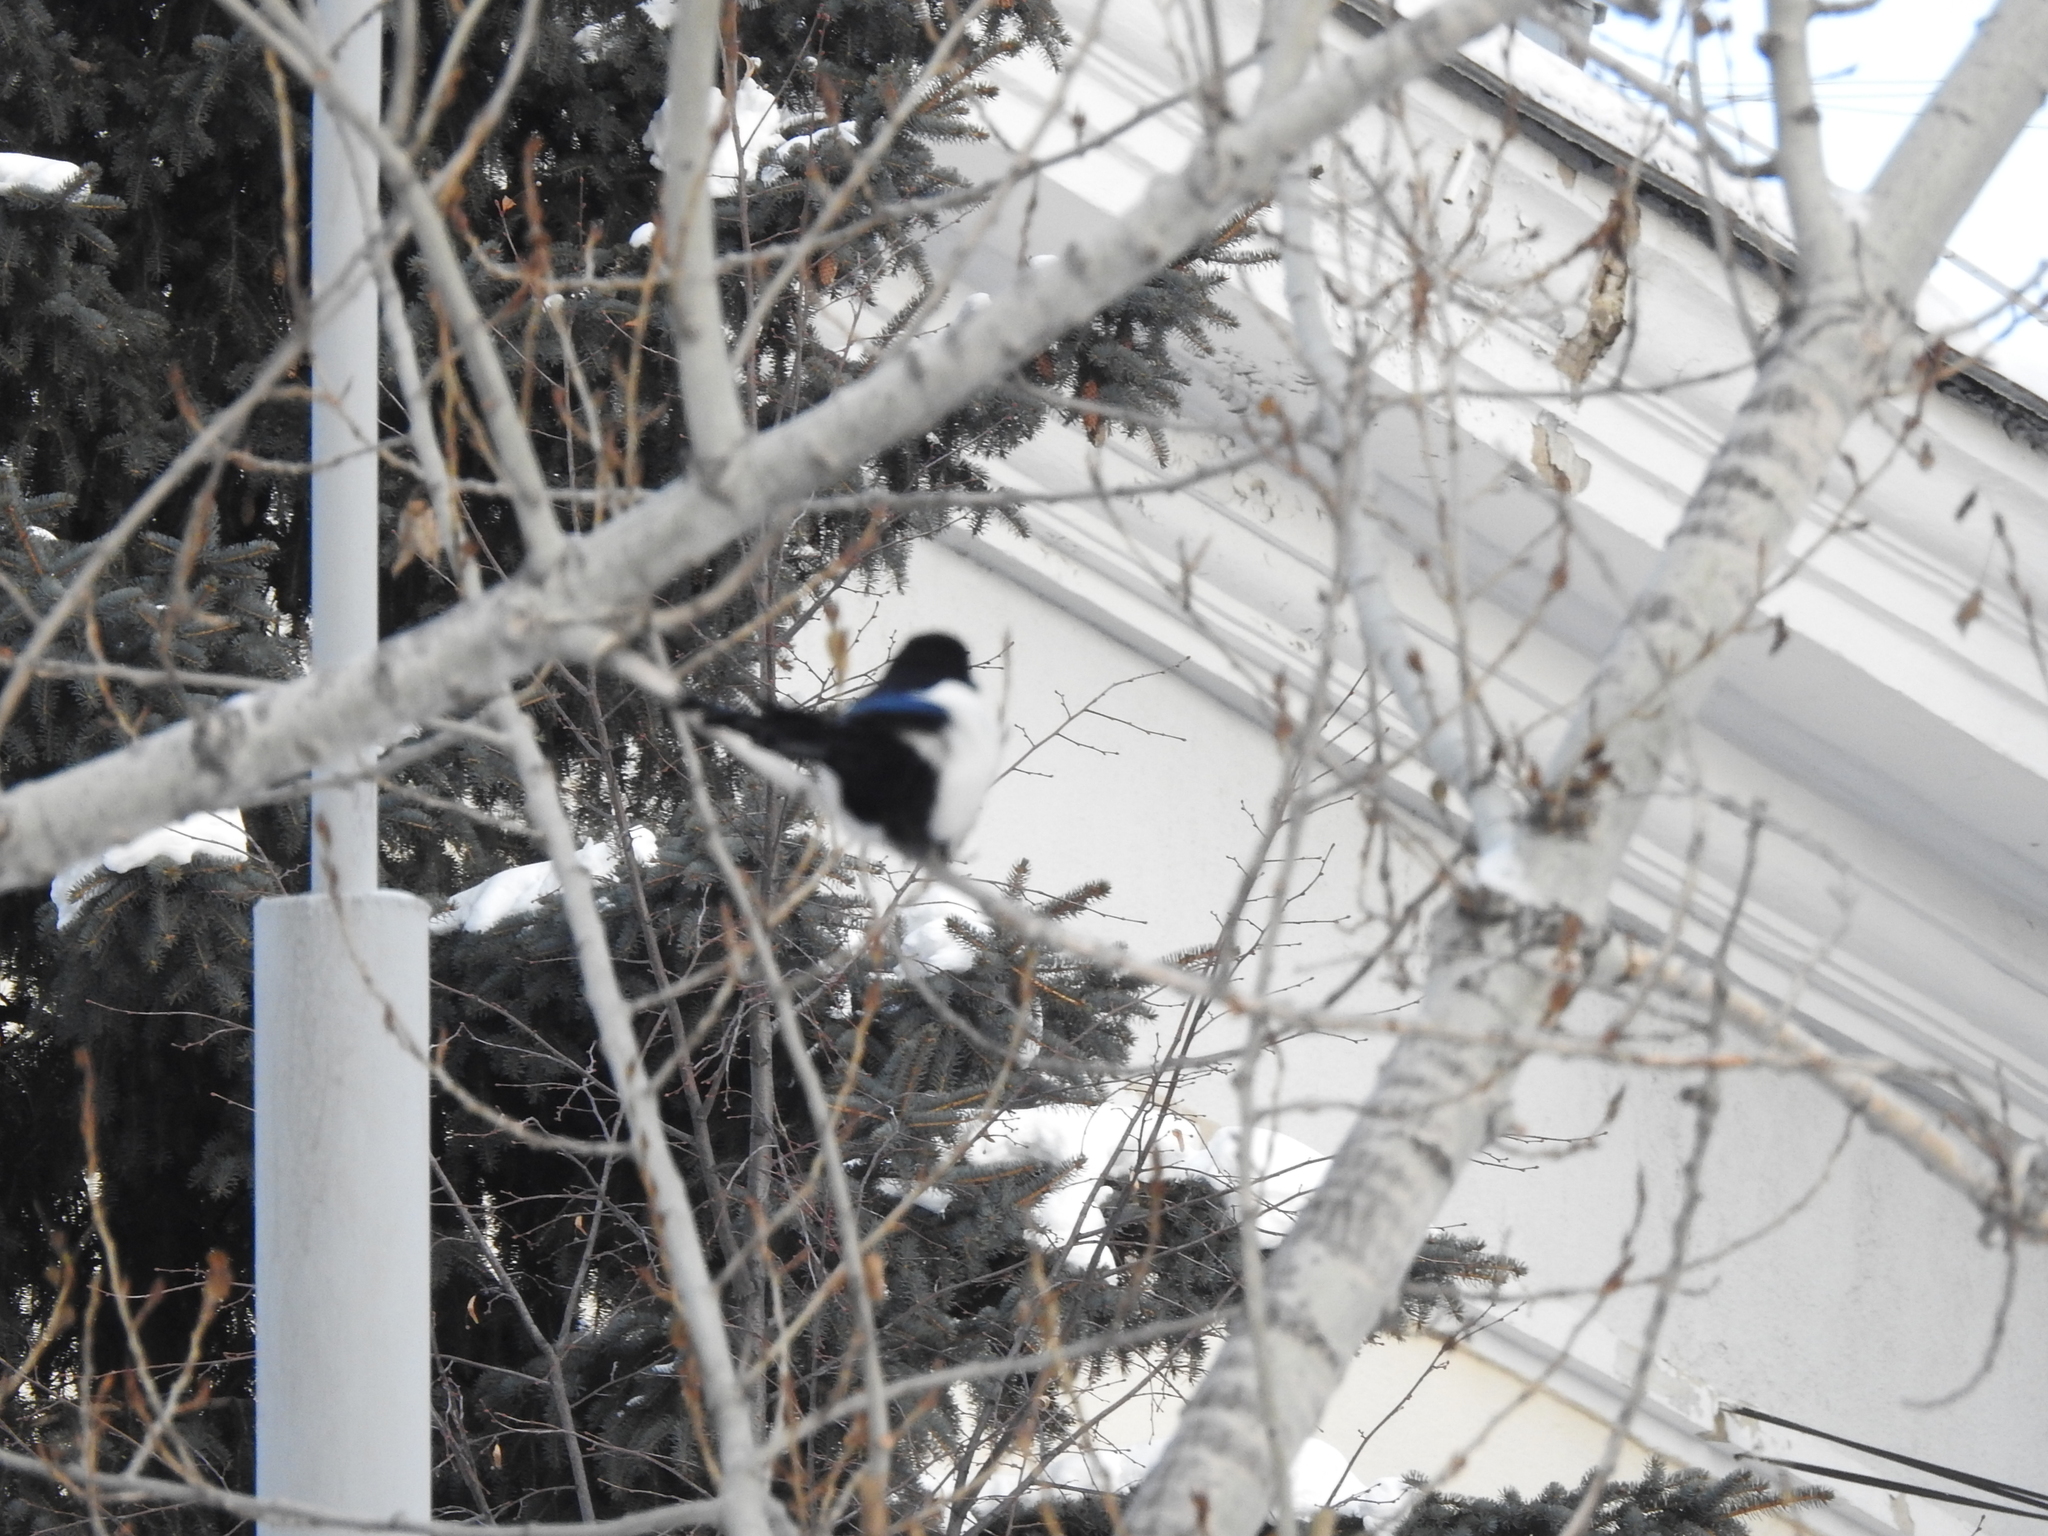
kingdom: Animalia
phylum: Chordata
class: Aves
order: Passeriformes
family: Corvidae
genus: Pica
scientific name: Pica pica
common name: Eurasian magpie
